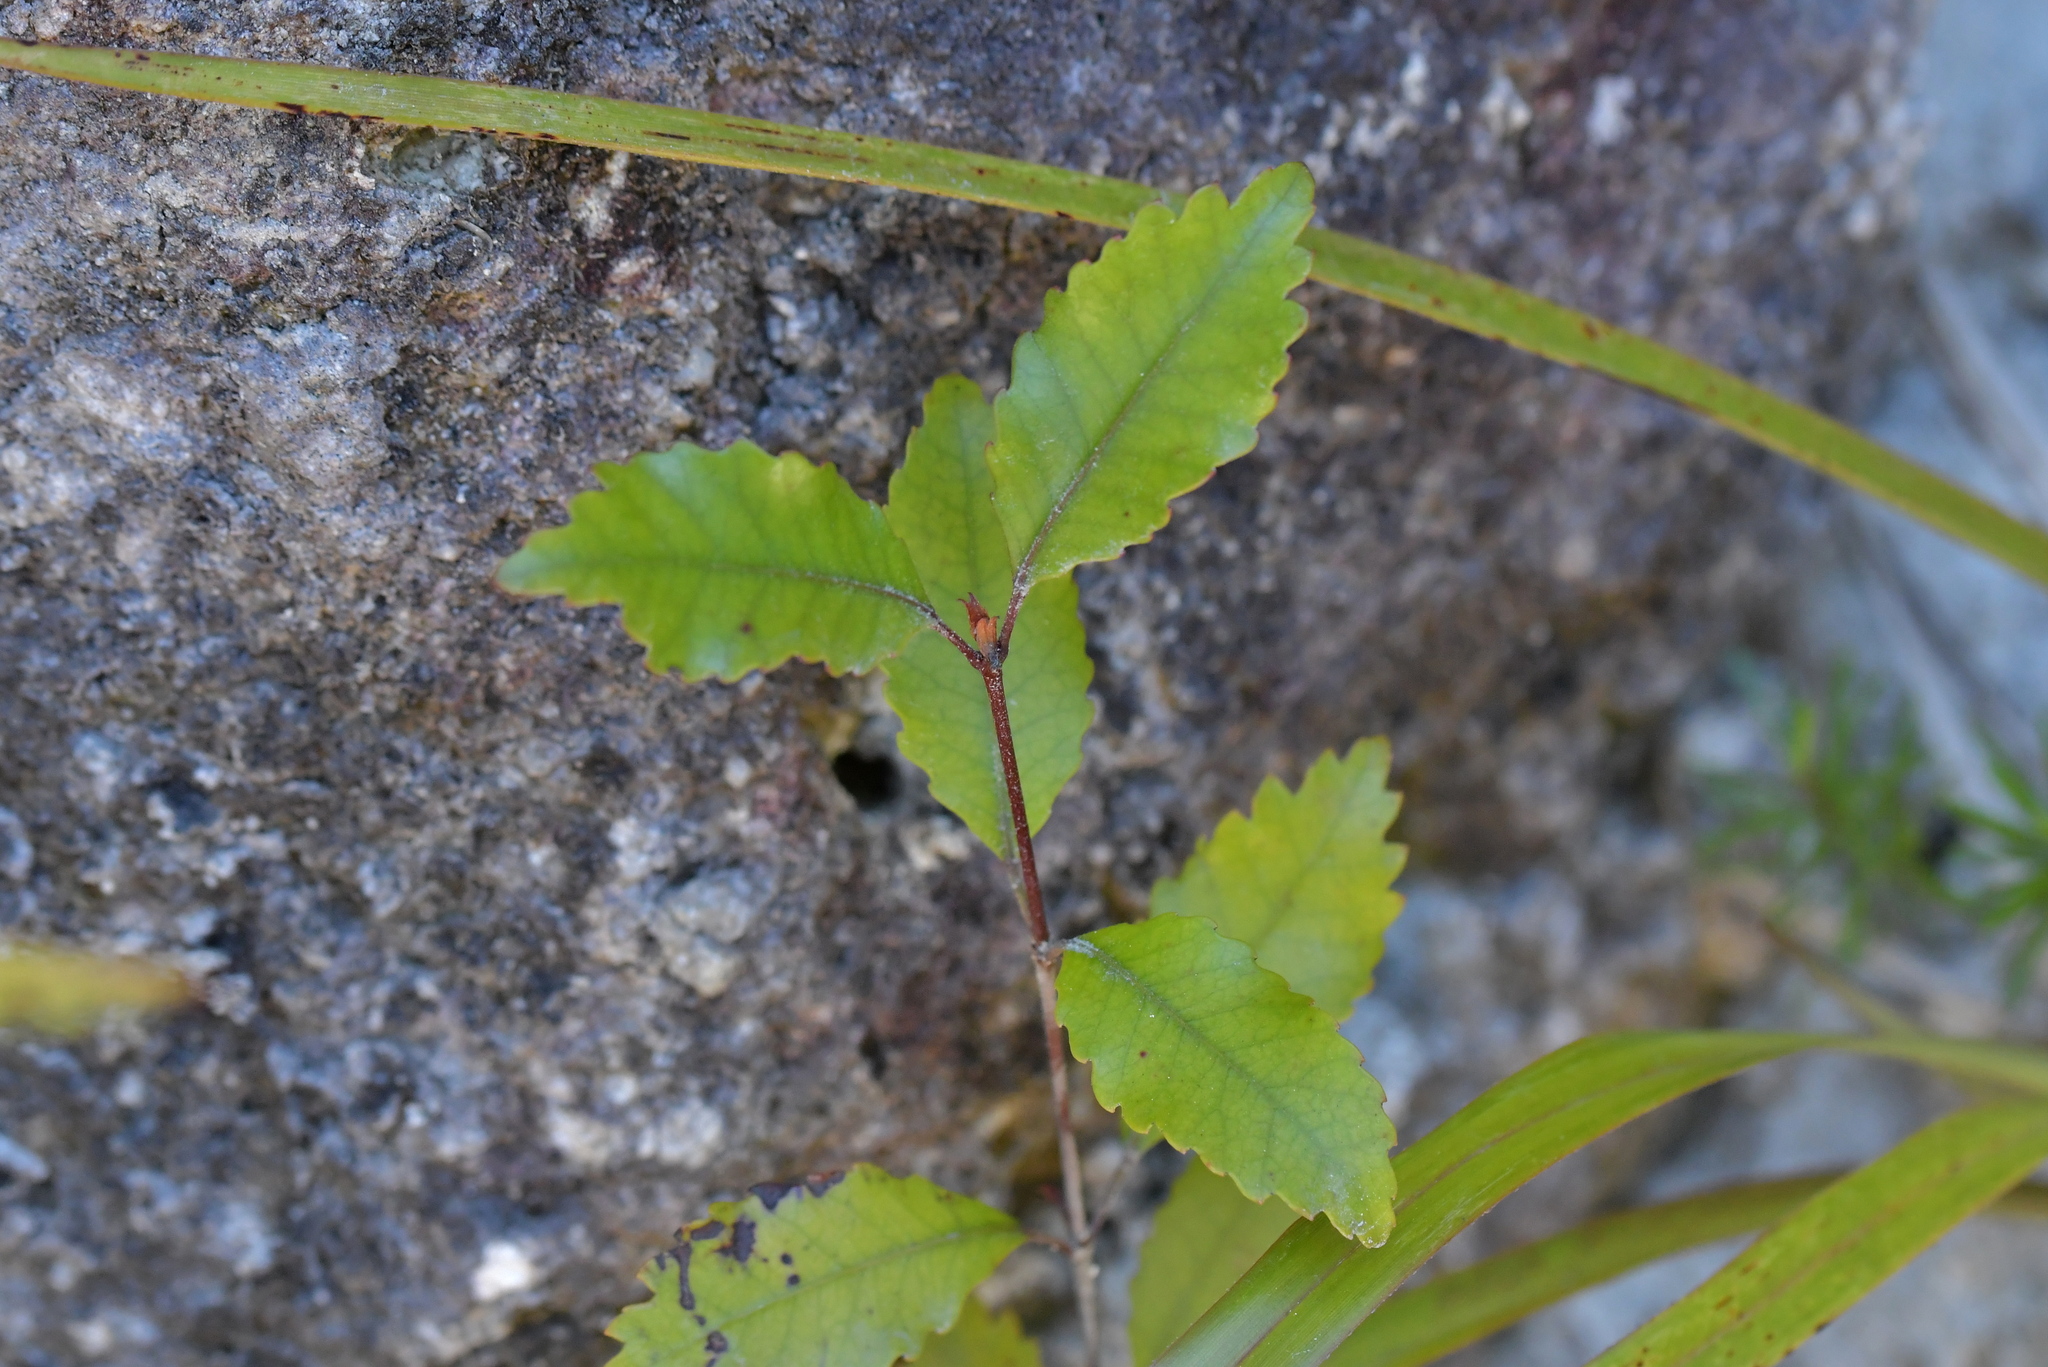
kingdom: Plantae
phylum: Tracheophyta
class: Magnoliopsida
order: Oxalidales
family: Cunoniaceae
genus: Pterophylla
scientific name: Pterophylla racemosa
